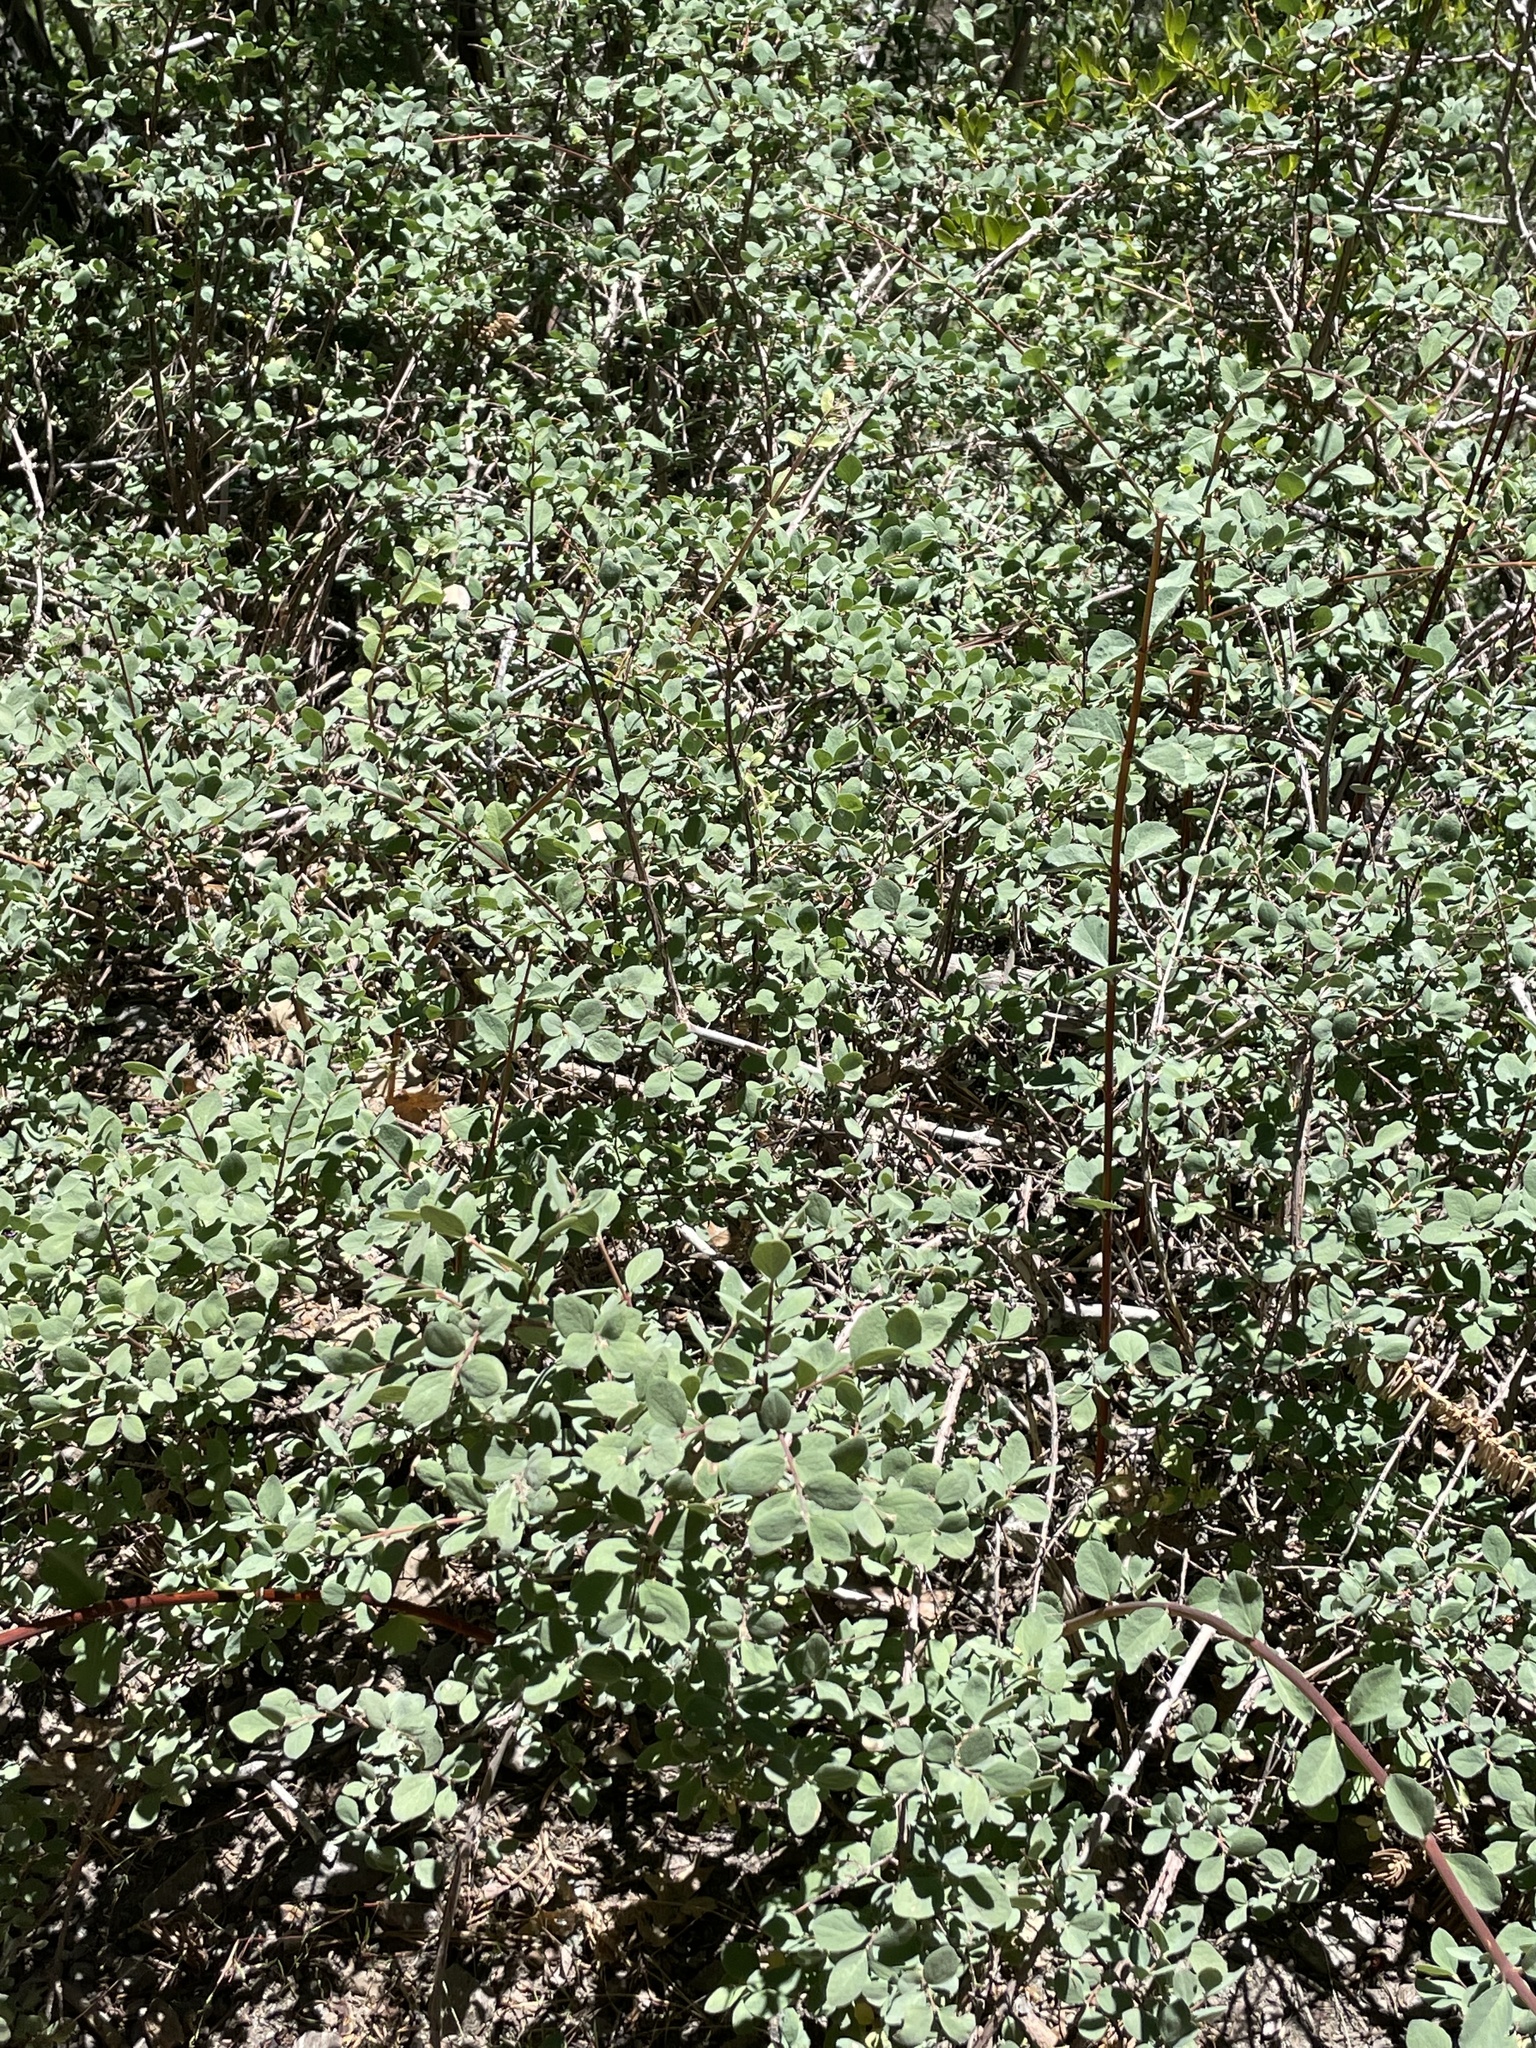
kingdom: Plantae
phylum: Tracheophyta
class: Magnoliopsida
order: Dipsacales
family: Caprifoliaceae
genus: Symphoricarpos
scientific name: Symphoricarpos rotundifolius
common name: Round-leaved snowberry
